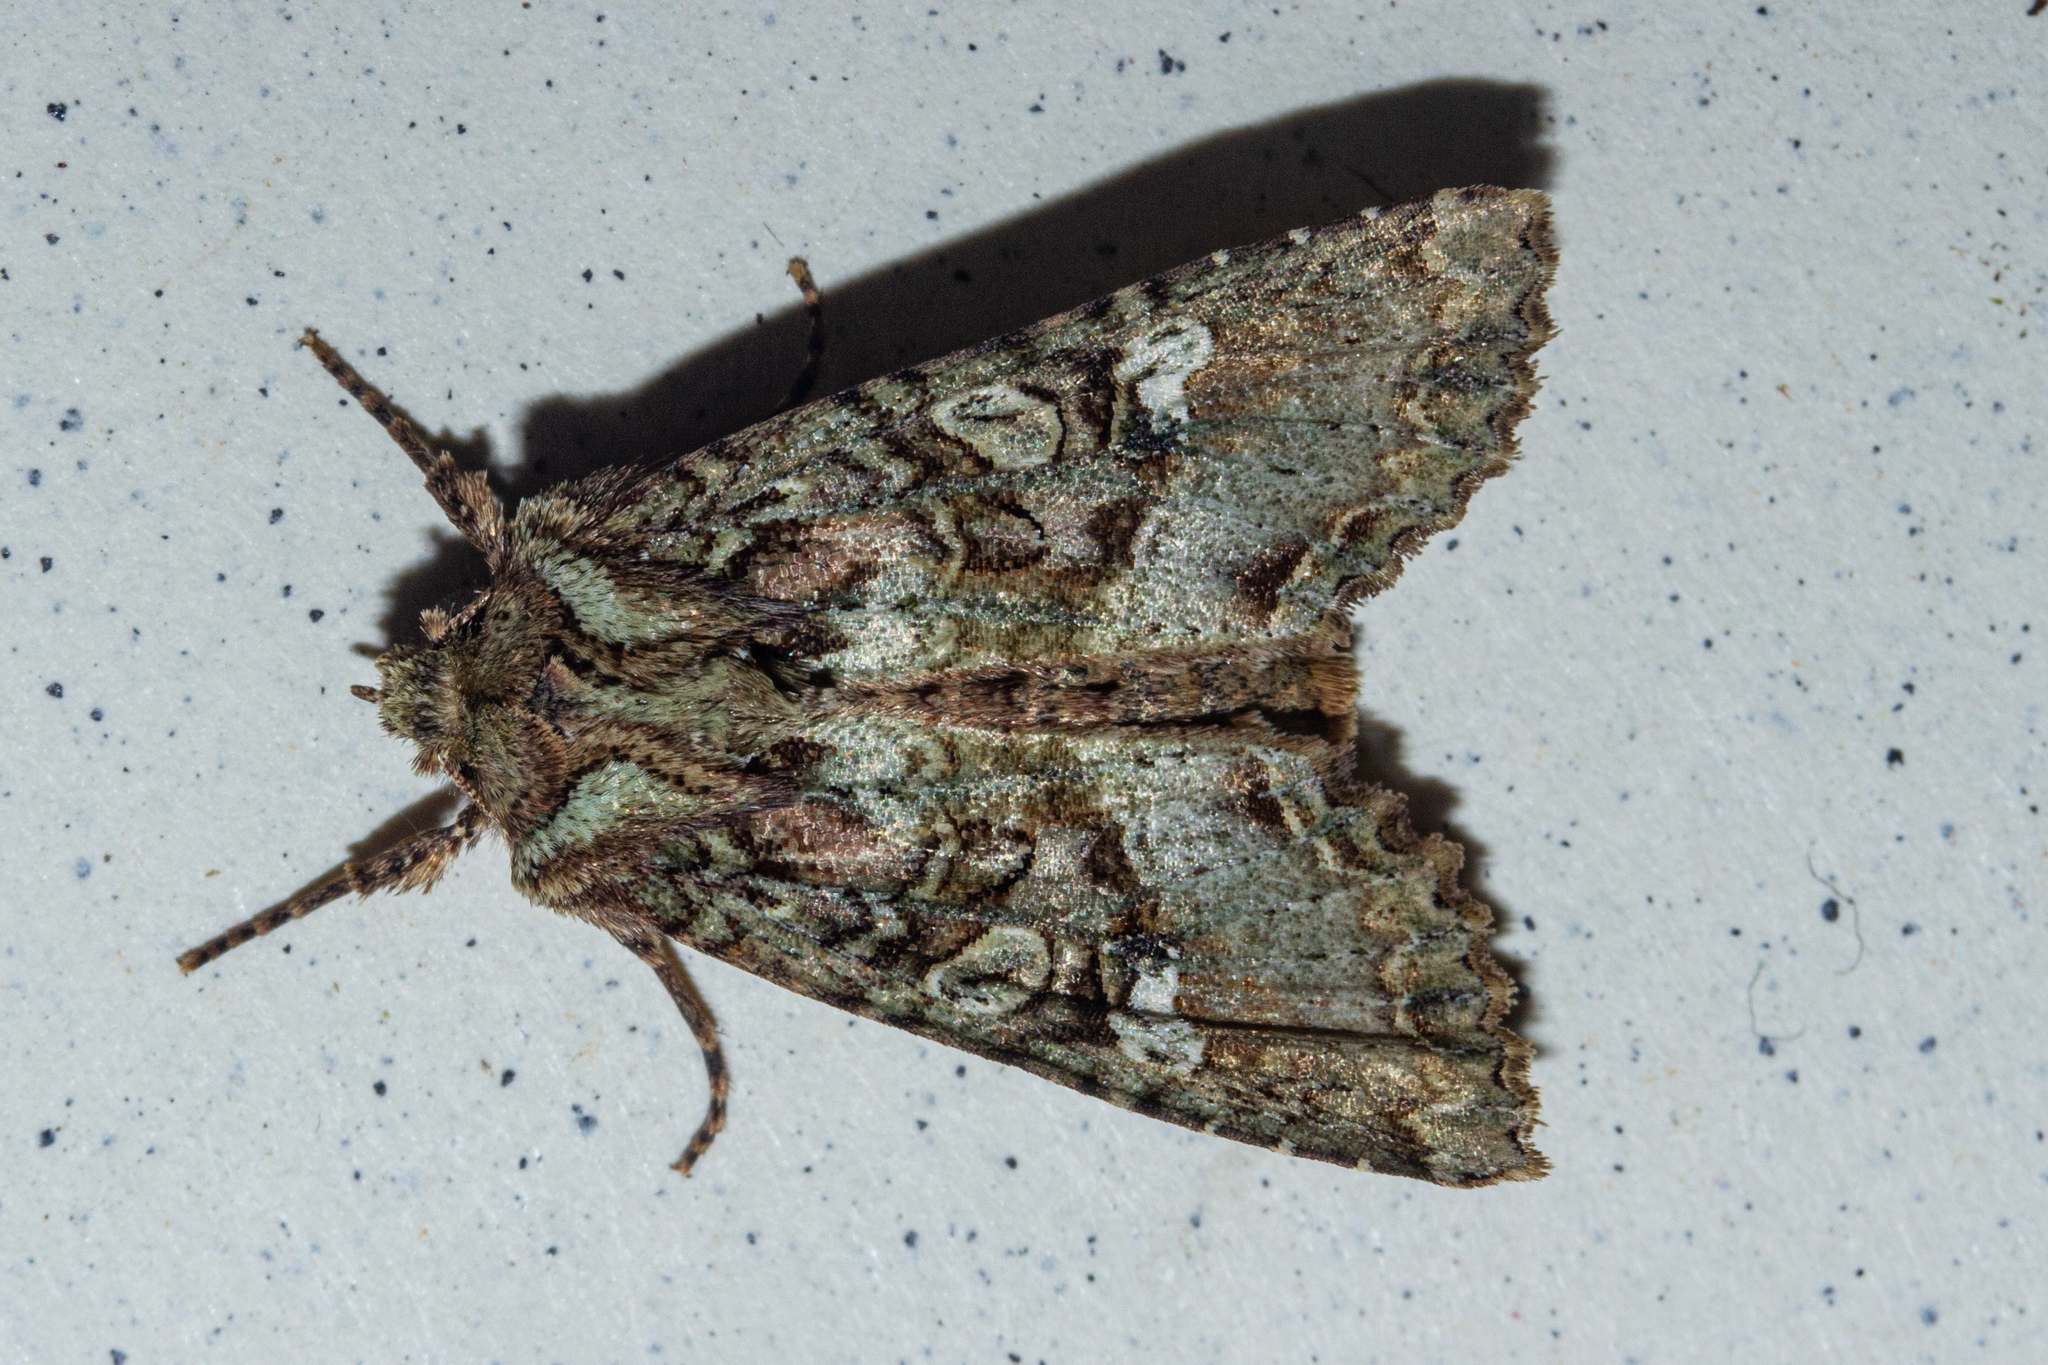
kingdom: Animalia
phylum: Arthropoda
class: Insecta
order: Lepidoptera
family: Noctuidae
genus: Meterana
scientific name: Meterana
